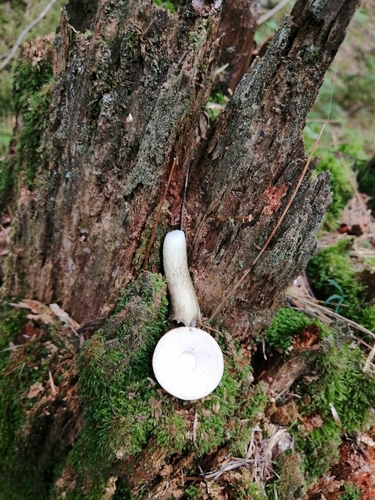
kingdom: Fungi
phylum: Basidiomycota
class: Agaricomycetes
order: Boletales
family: Boletaceae
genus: Tylopilus
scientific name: Tylopilus felleus
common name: Bitter bolete
